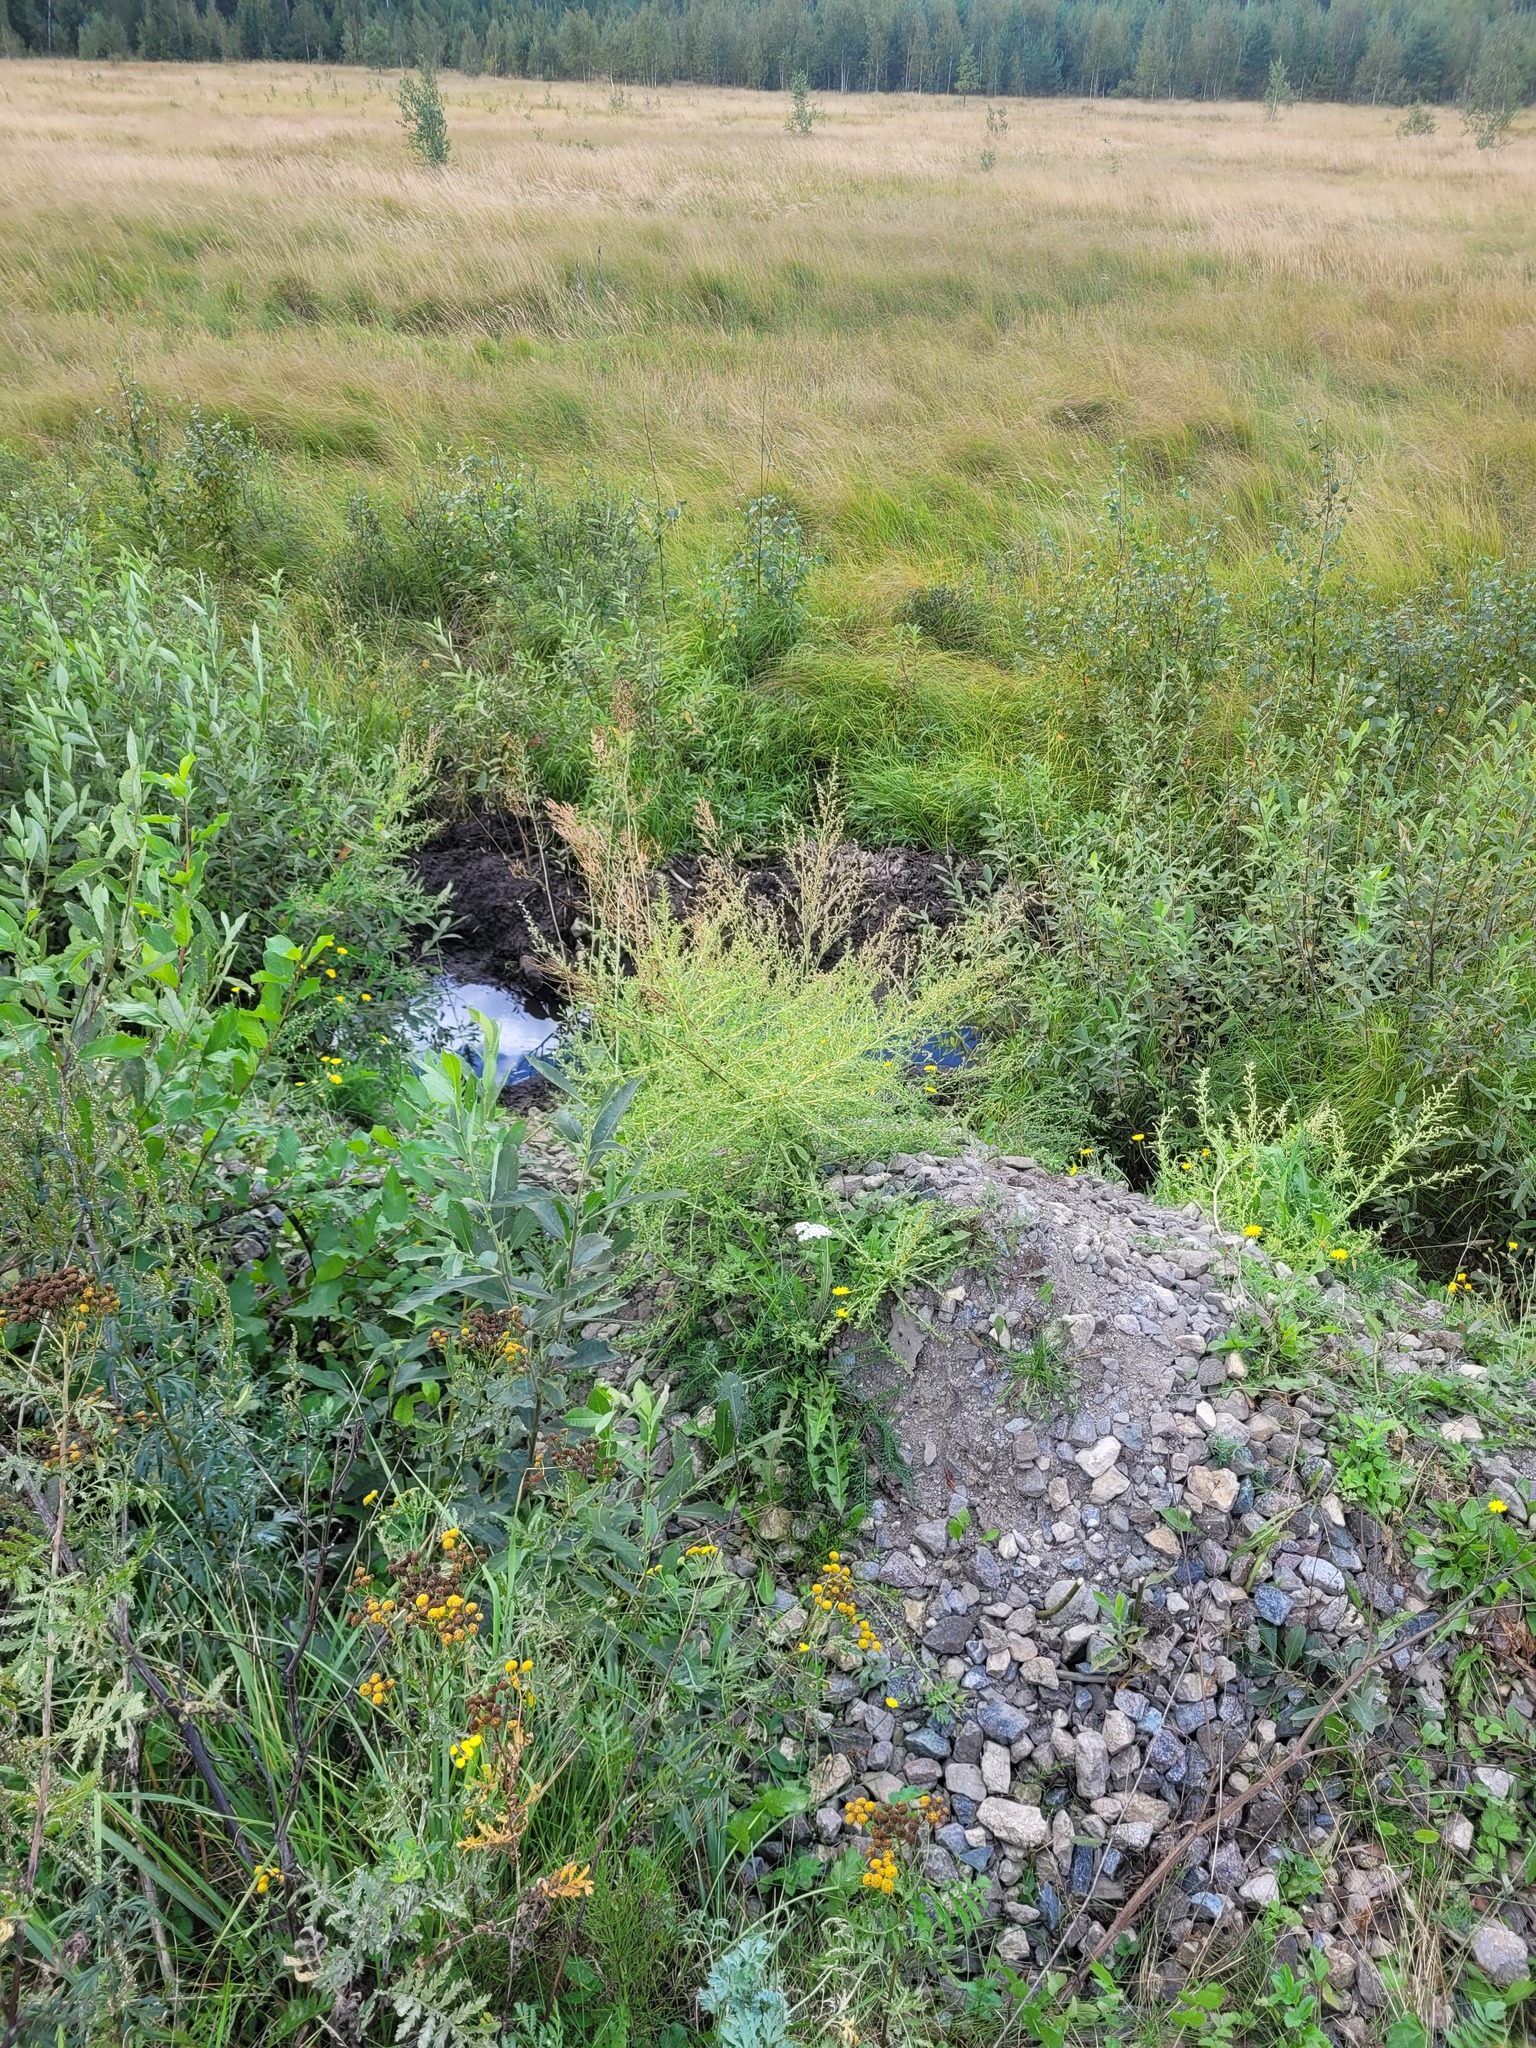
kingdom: Plantae
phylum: Tracheophyta
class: Magnoliopsida
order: Caryophyllales
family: Amaranthaceae
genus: Amaranthus
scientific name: Amaranthus albus
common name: White pigweed
